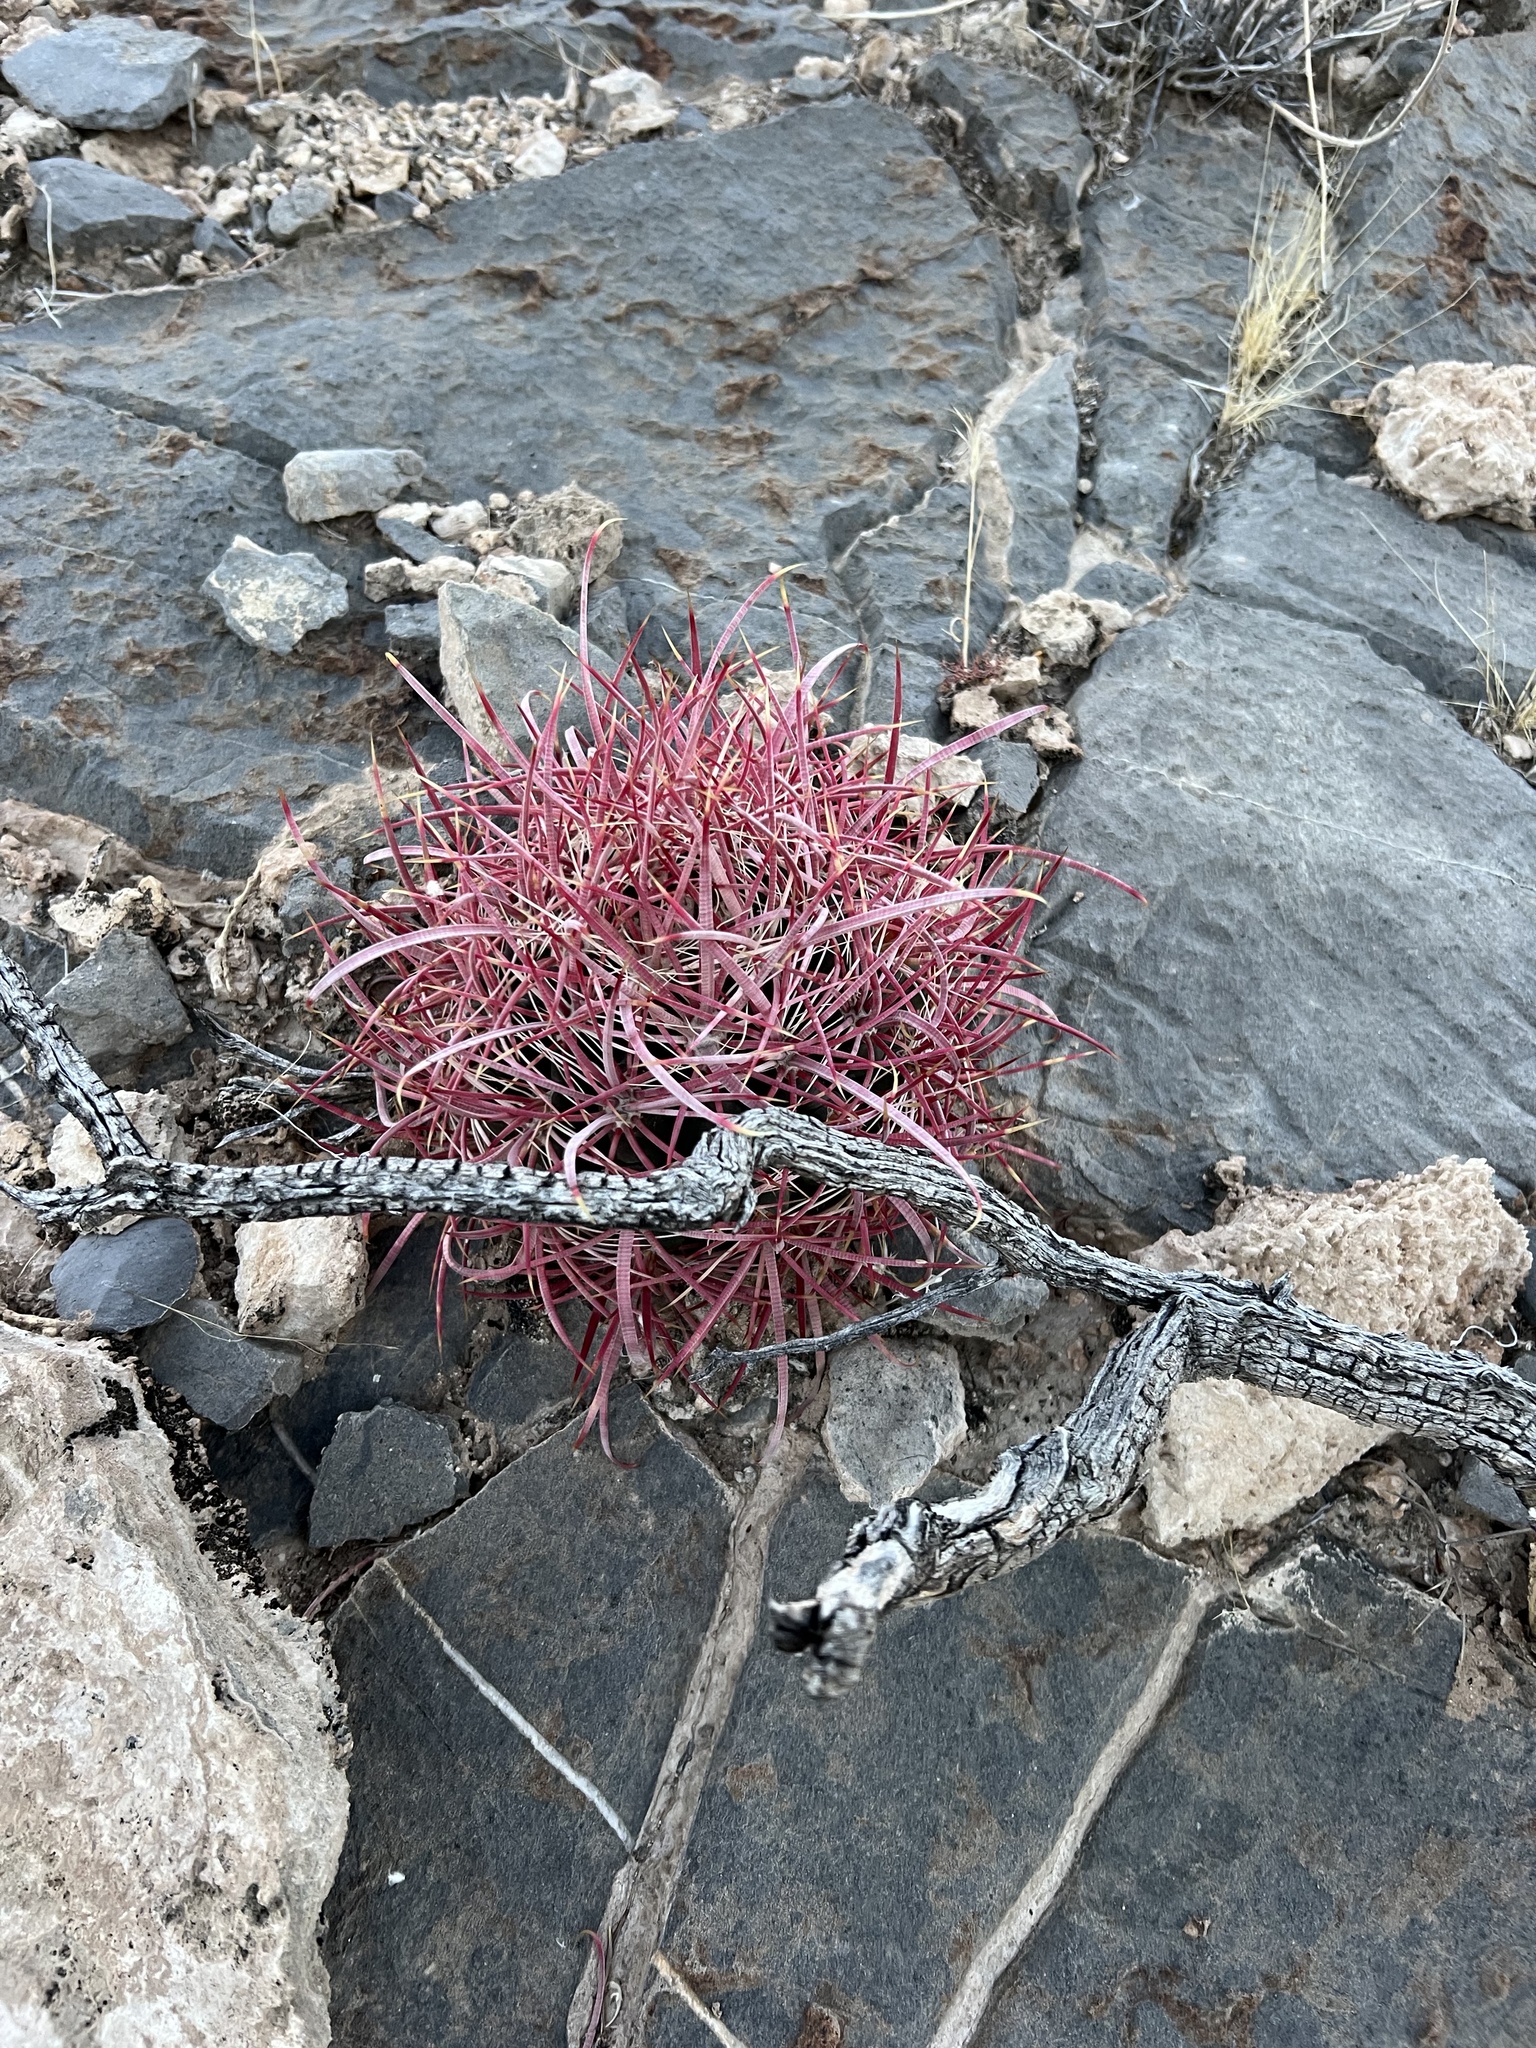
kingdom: Plantae
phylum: Tracheophyta
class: Magnoliopsida
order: Caryophyllales
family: Cactaceae
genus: Ferocactus
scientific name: Ferocactus cylindraceus
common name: California barrel cactus
